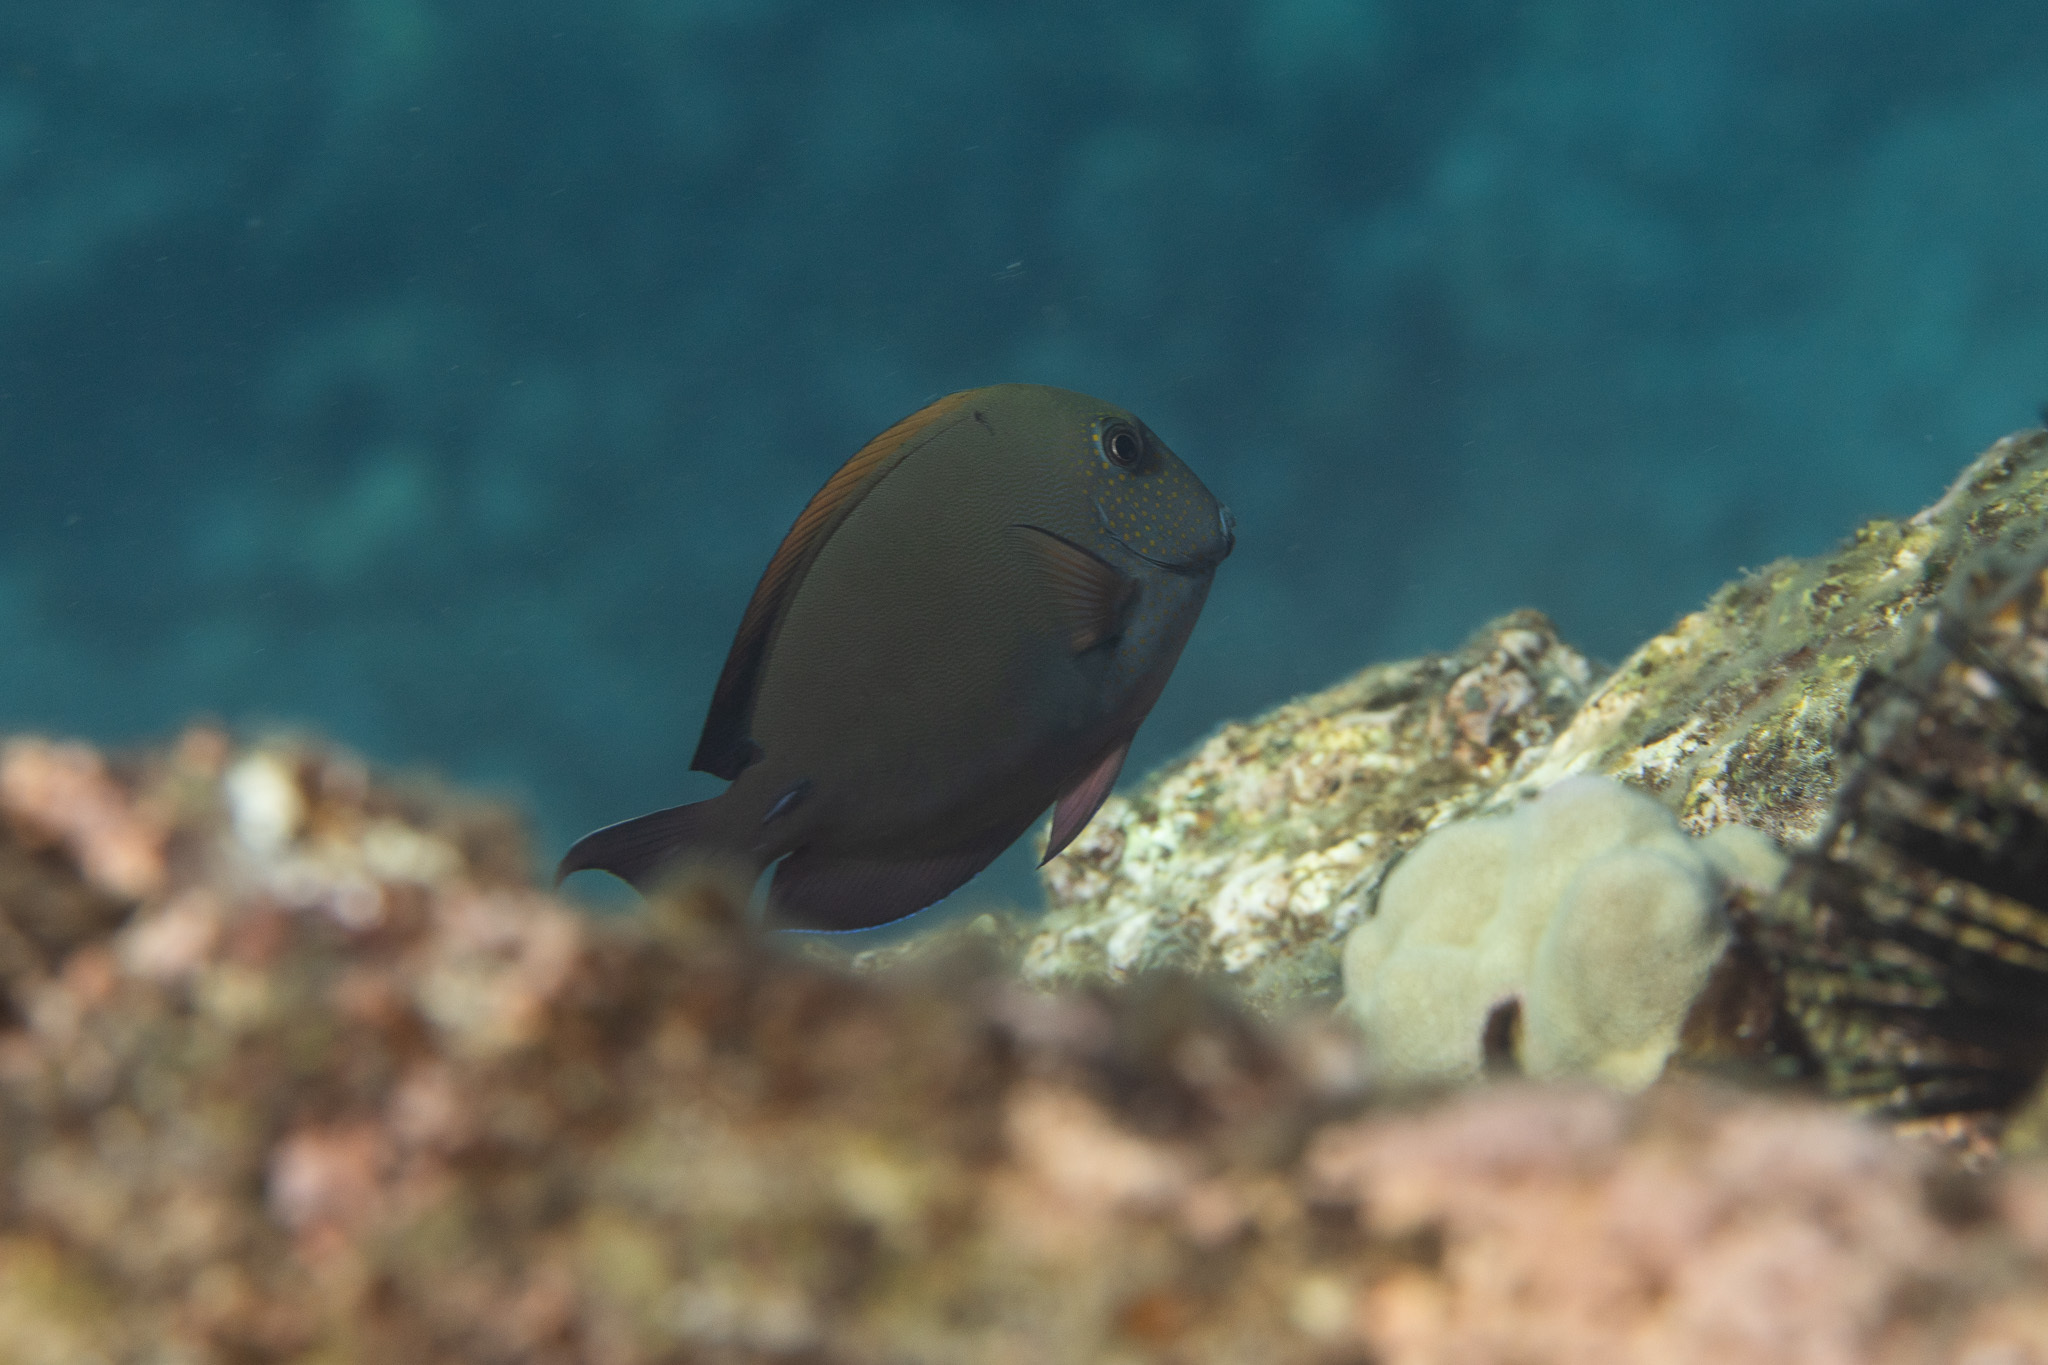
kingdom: Animalia
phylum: Chordata
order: Perciformes
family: Acanthuridae
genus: Acanthurus
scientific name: Acanthurus nigrofuscus
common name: Blackspot surgeonfish
